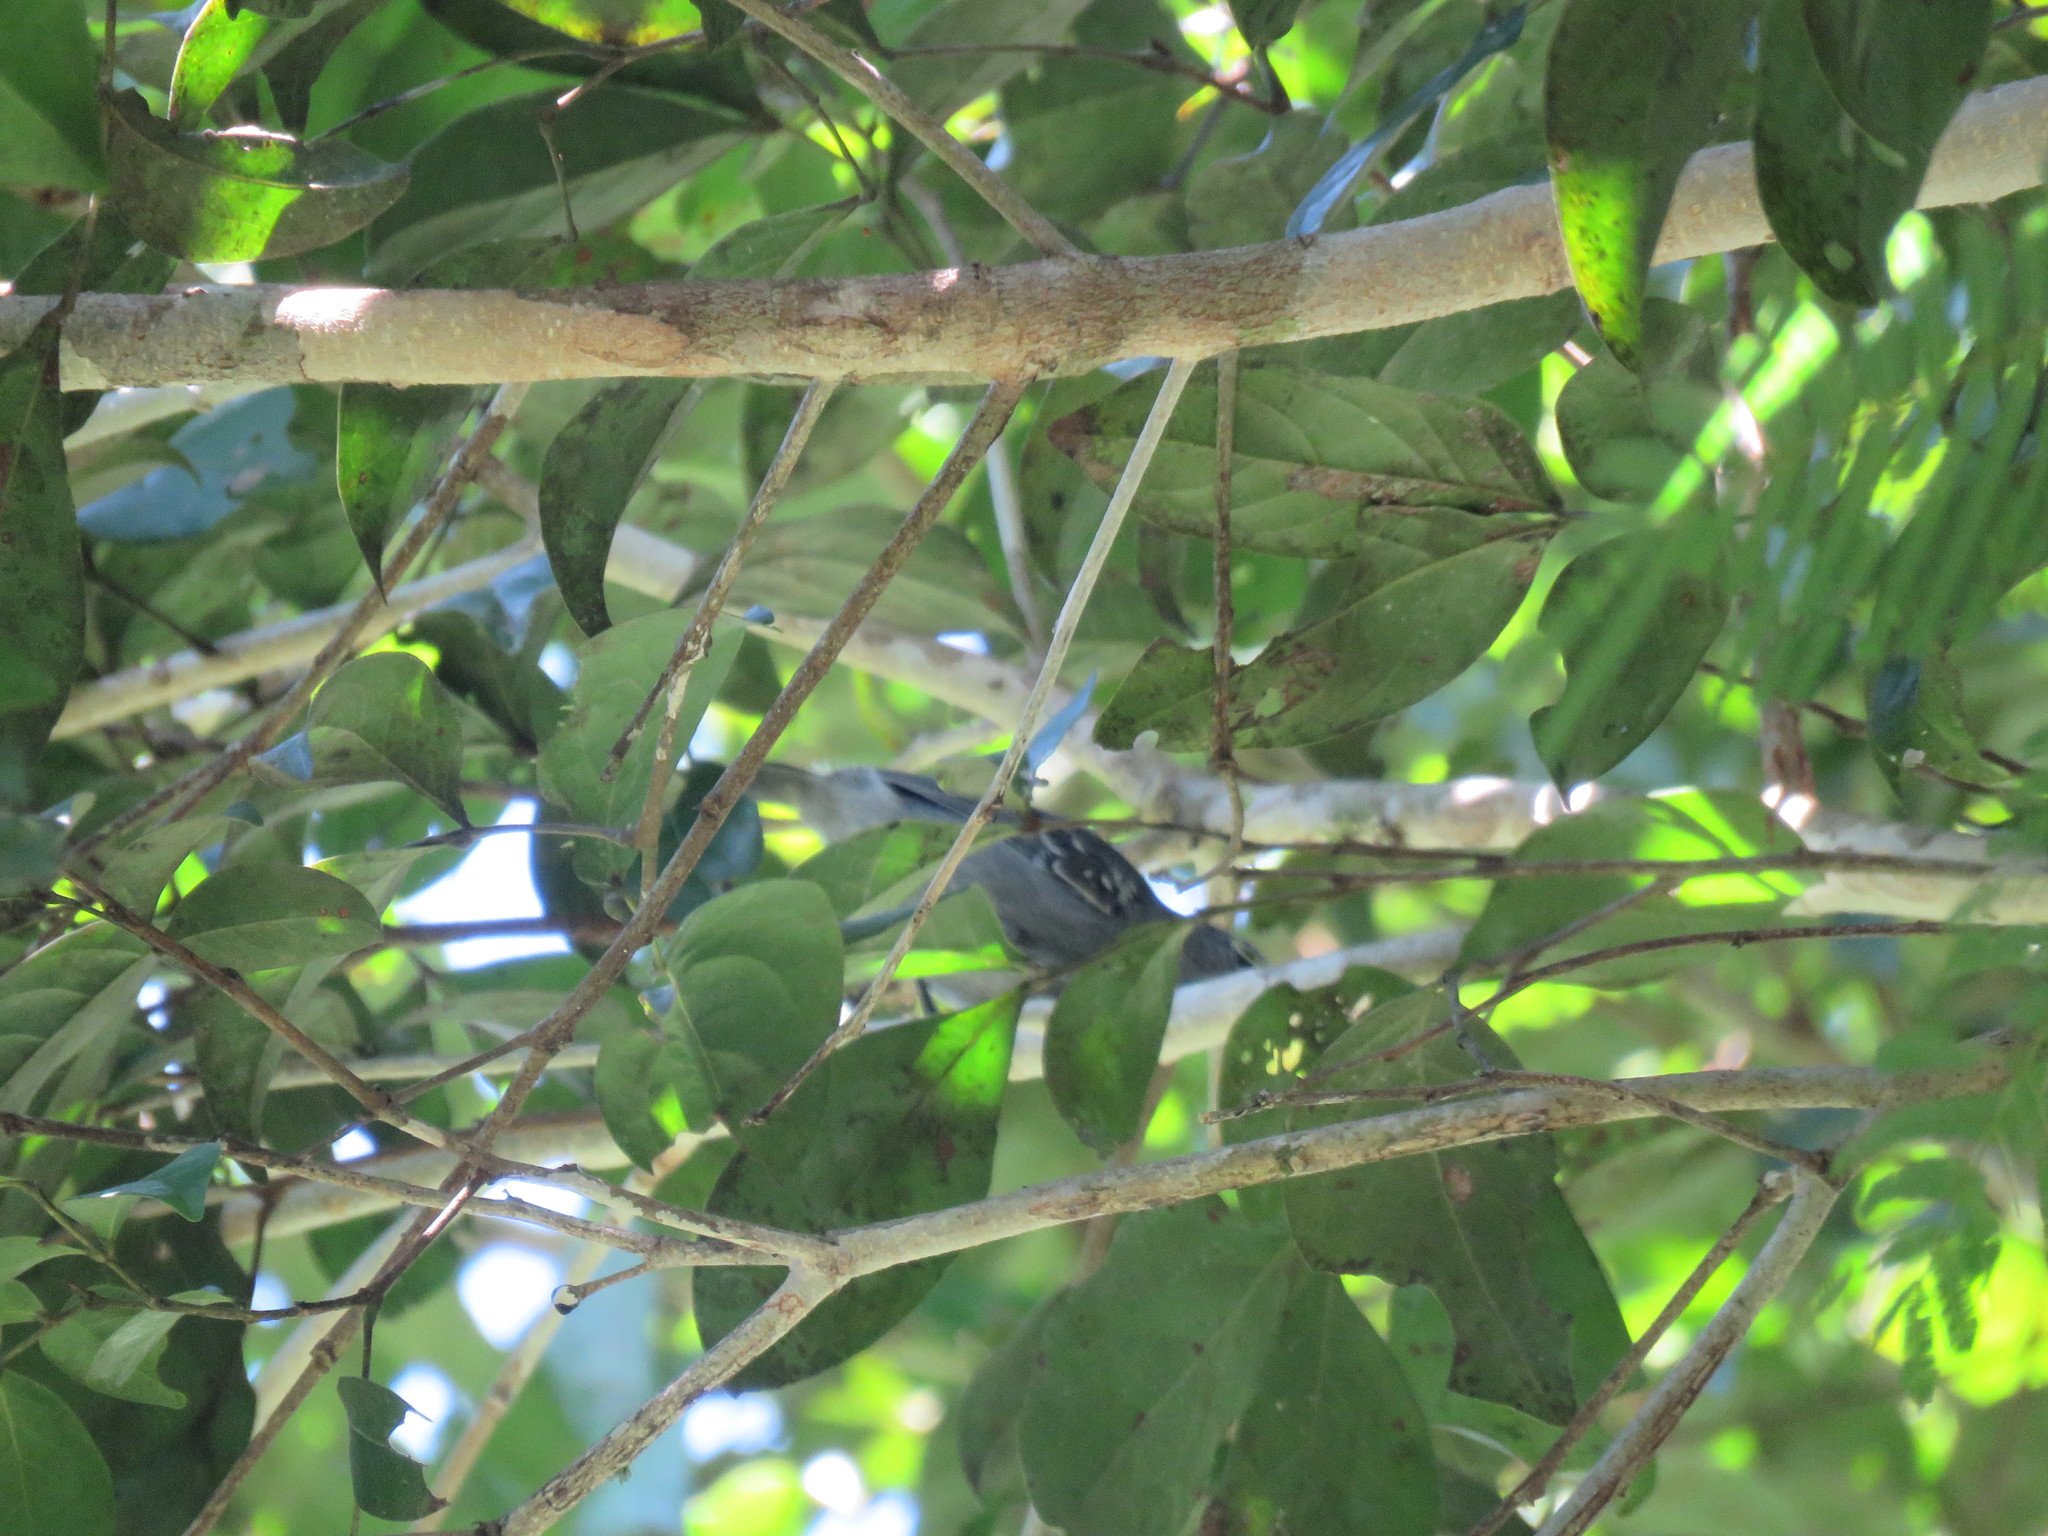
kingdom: Animalia
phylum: Chordata
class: Aves
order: Passeriformes
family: Thamnophilidae
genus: Myrmotherula
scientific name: Myrmotherula longipennis
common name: Long-winged antwren
